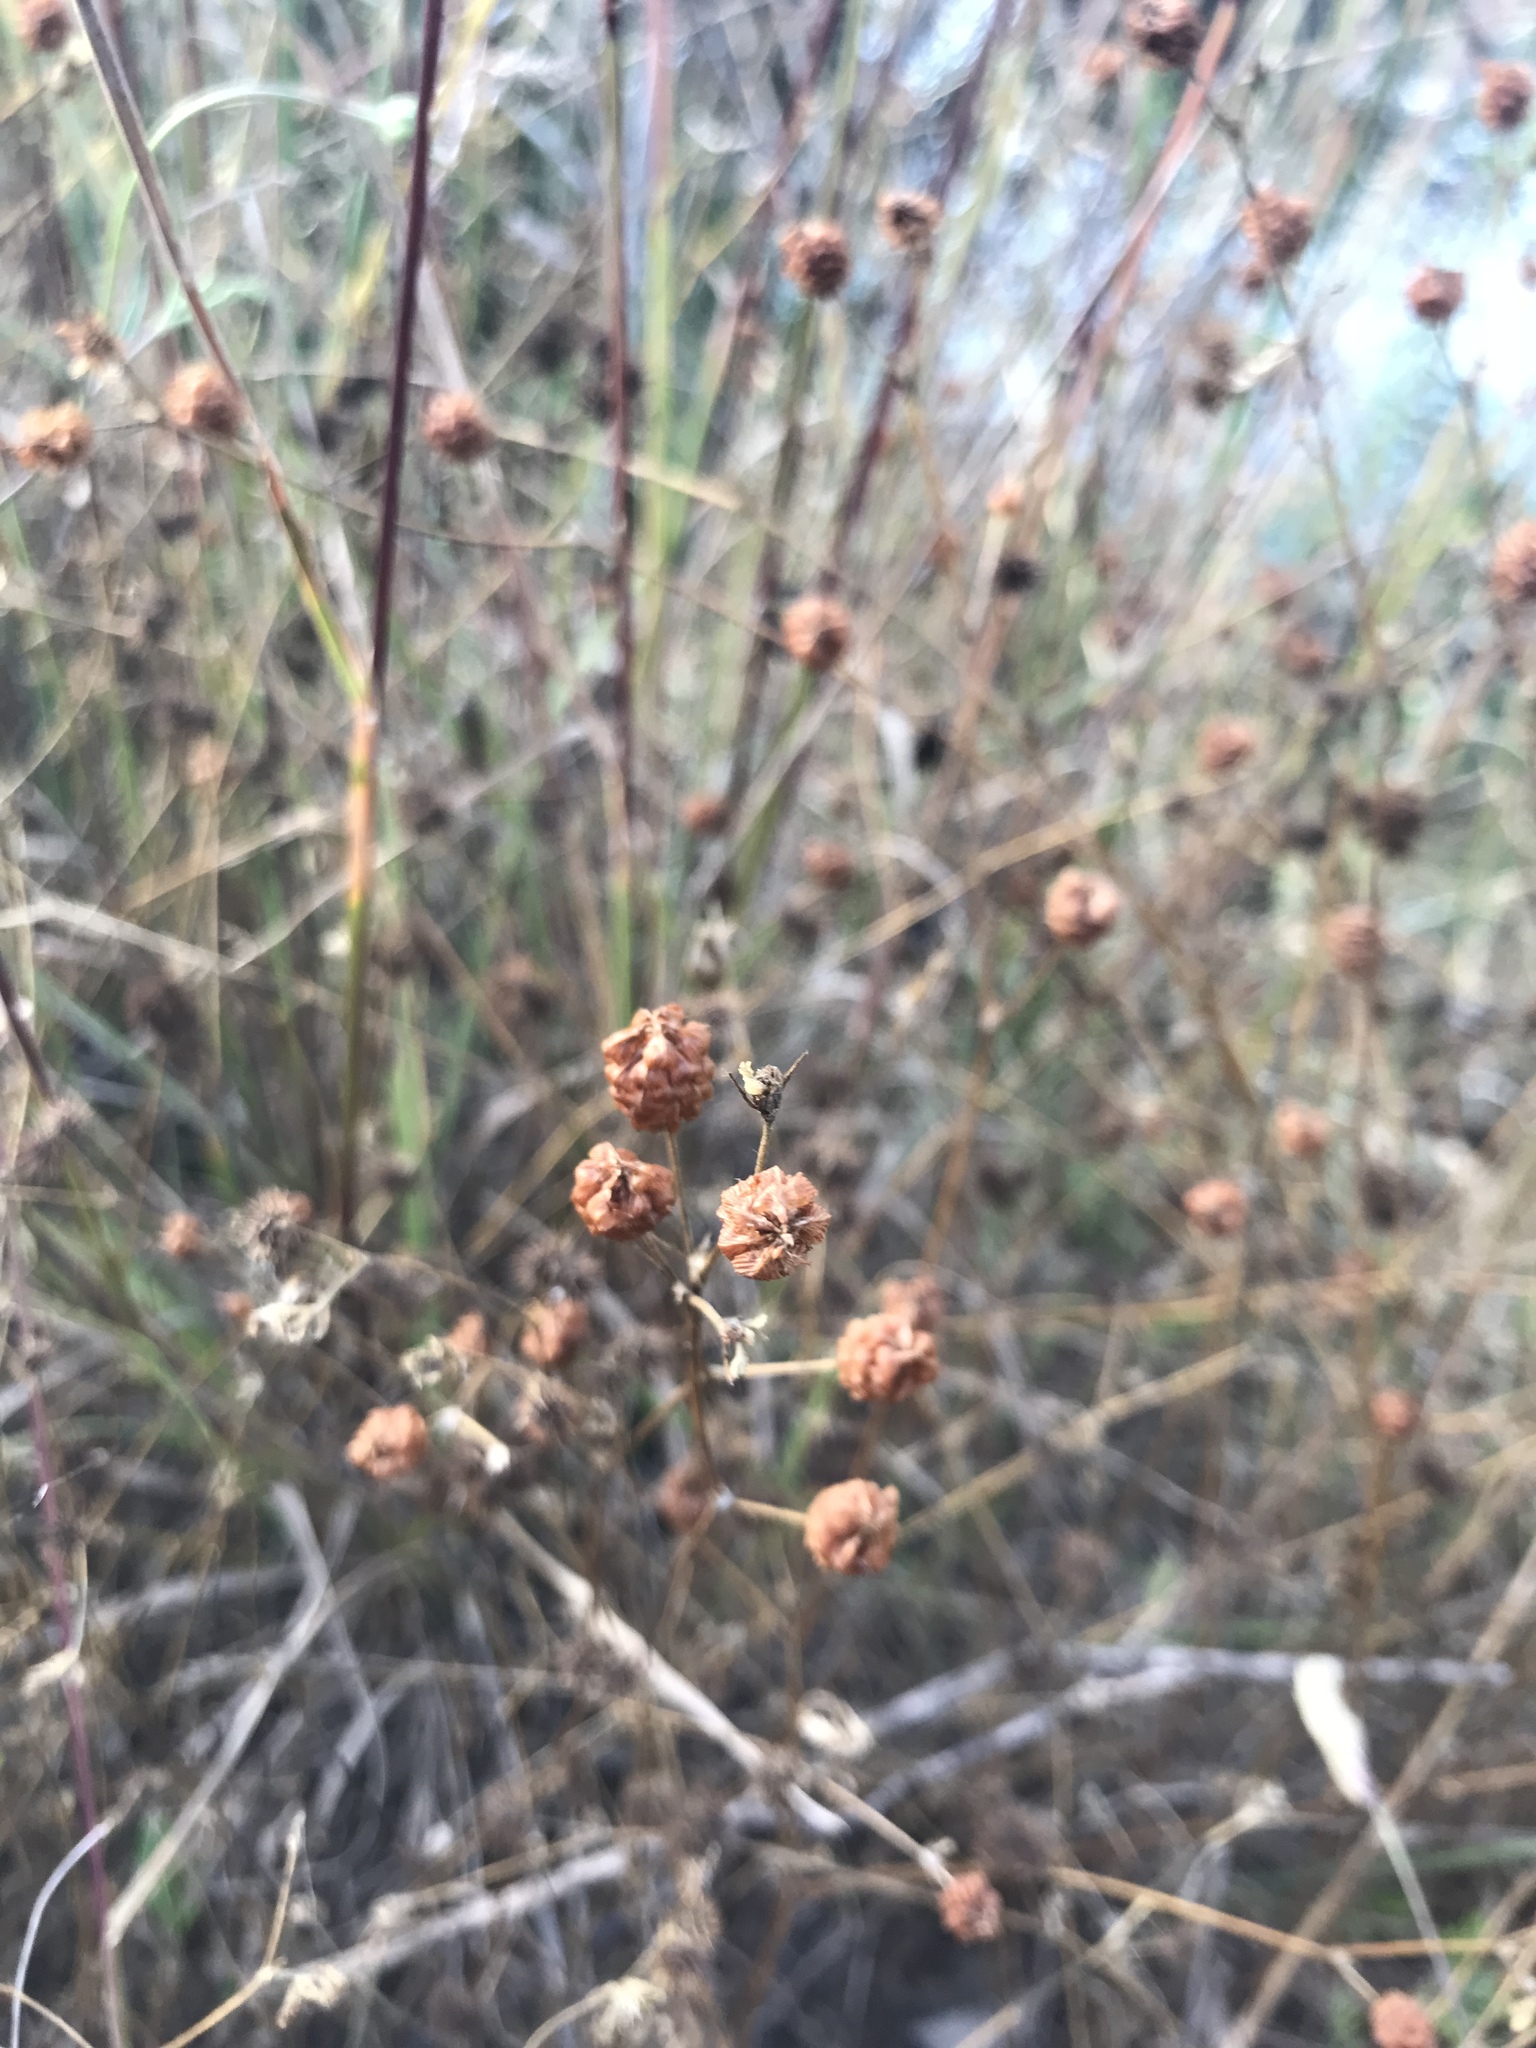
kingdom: Plantae
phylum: Tracheophyta
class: Magnoliopsida
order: Fabales
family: Fabaceae
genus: Trifolium
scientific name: Trifolium campestre
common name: Field clover
